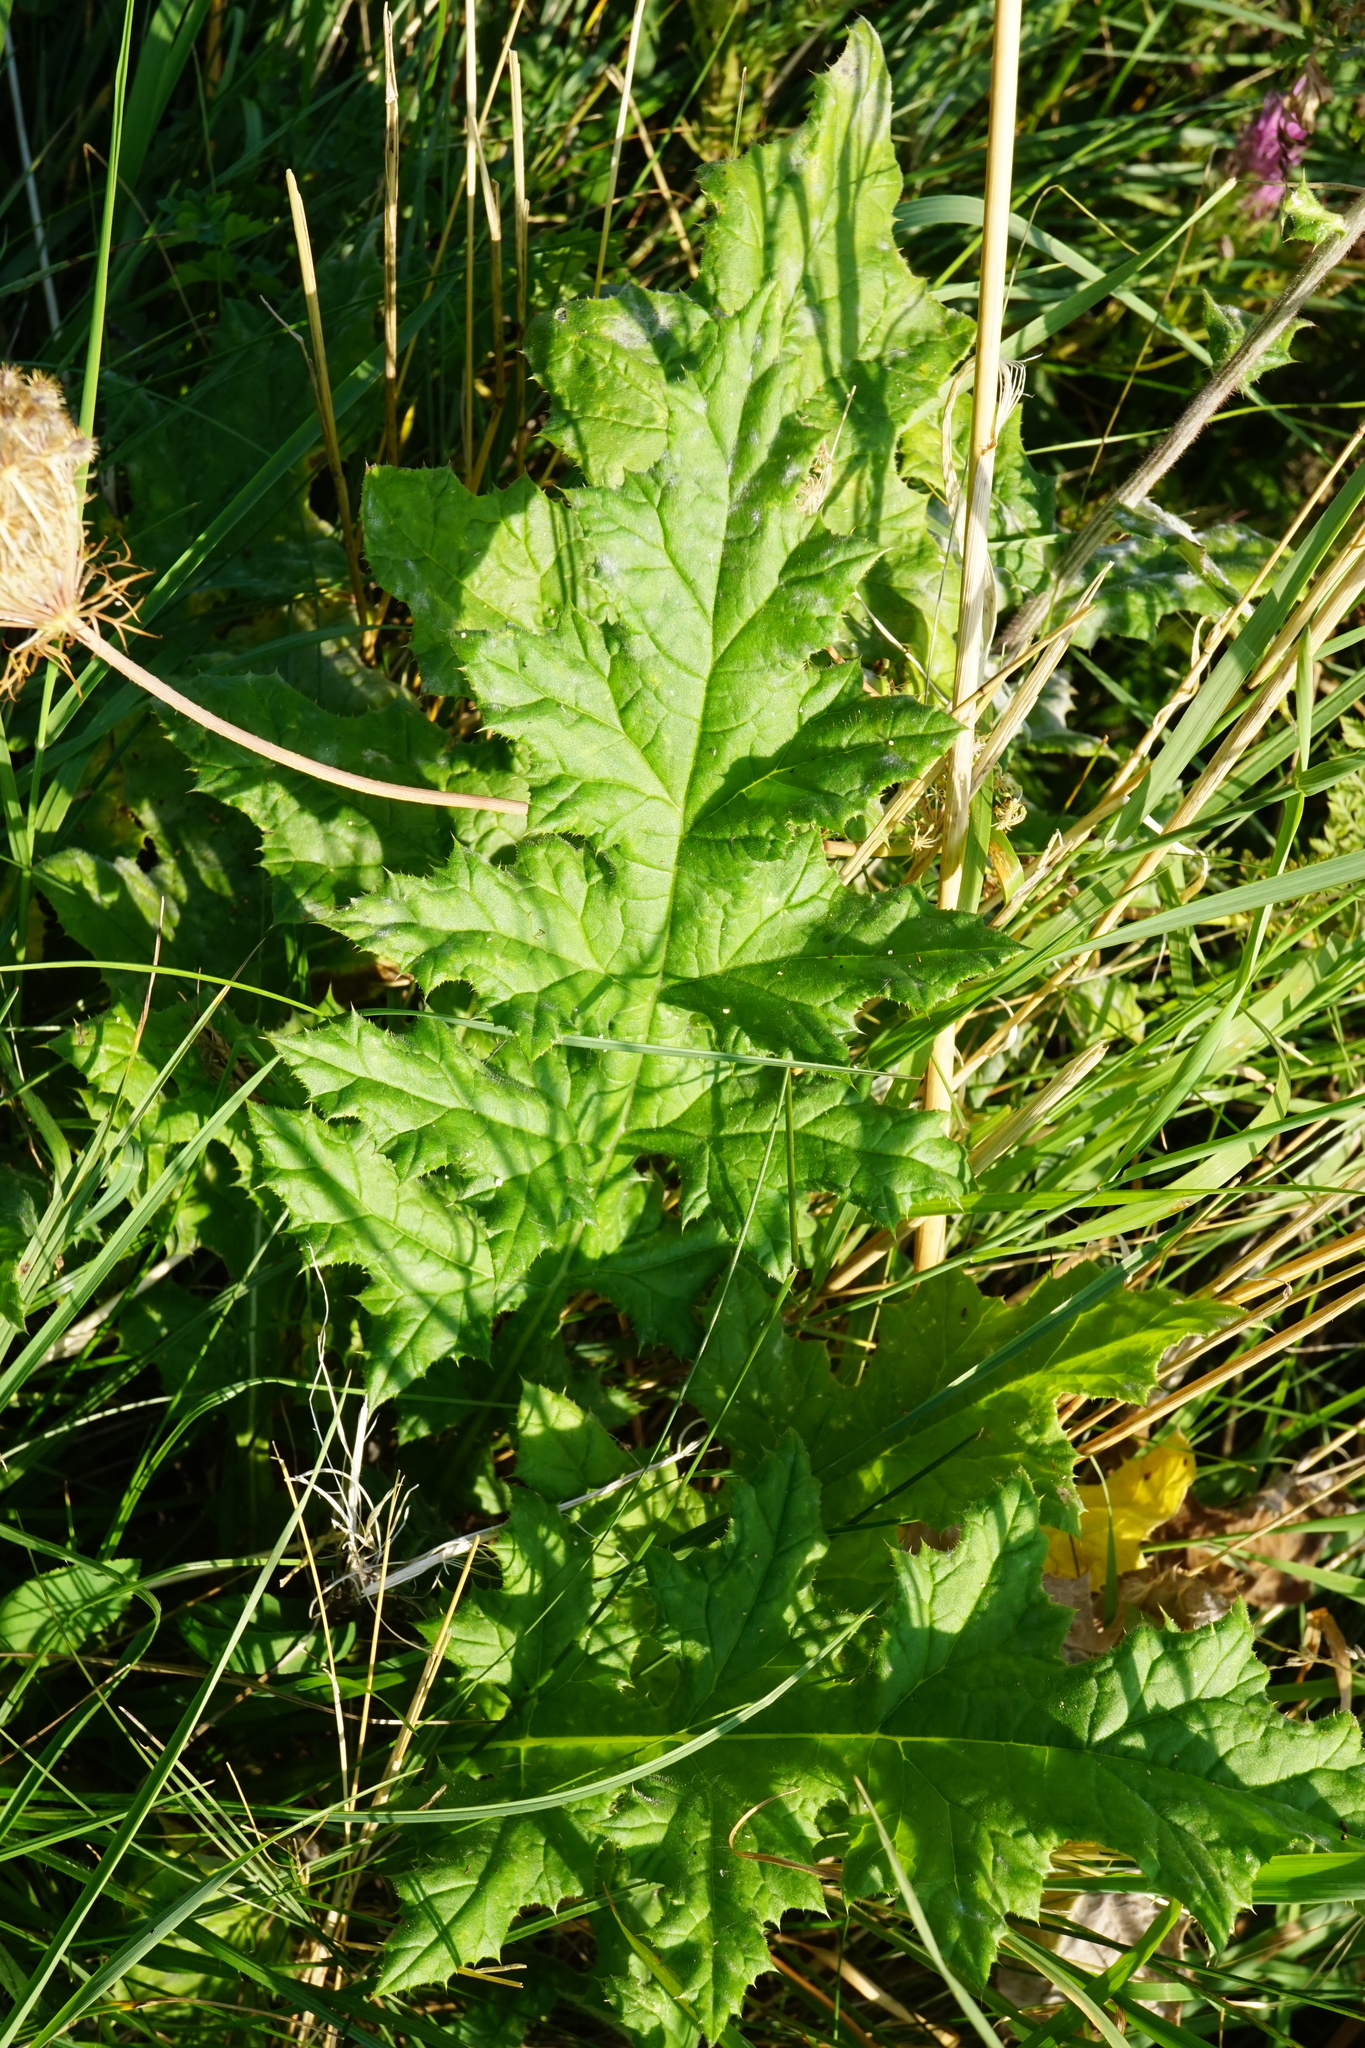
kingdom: Plantae
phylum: Tracheophyta
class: Magnoliopsida
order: Asterales
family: Asteraceae
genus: Echinops
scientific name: Echinops sphaerocephalus
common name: Glandular globe-thistle
